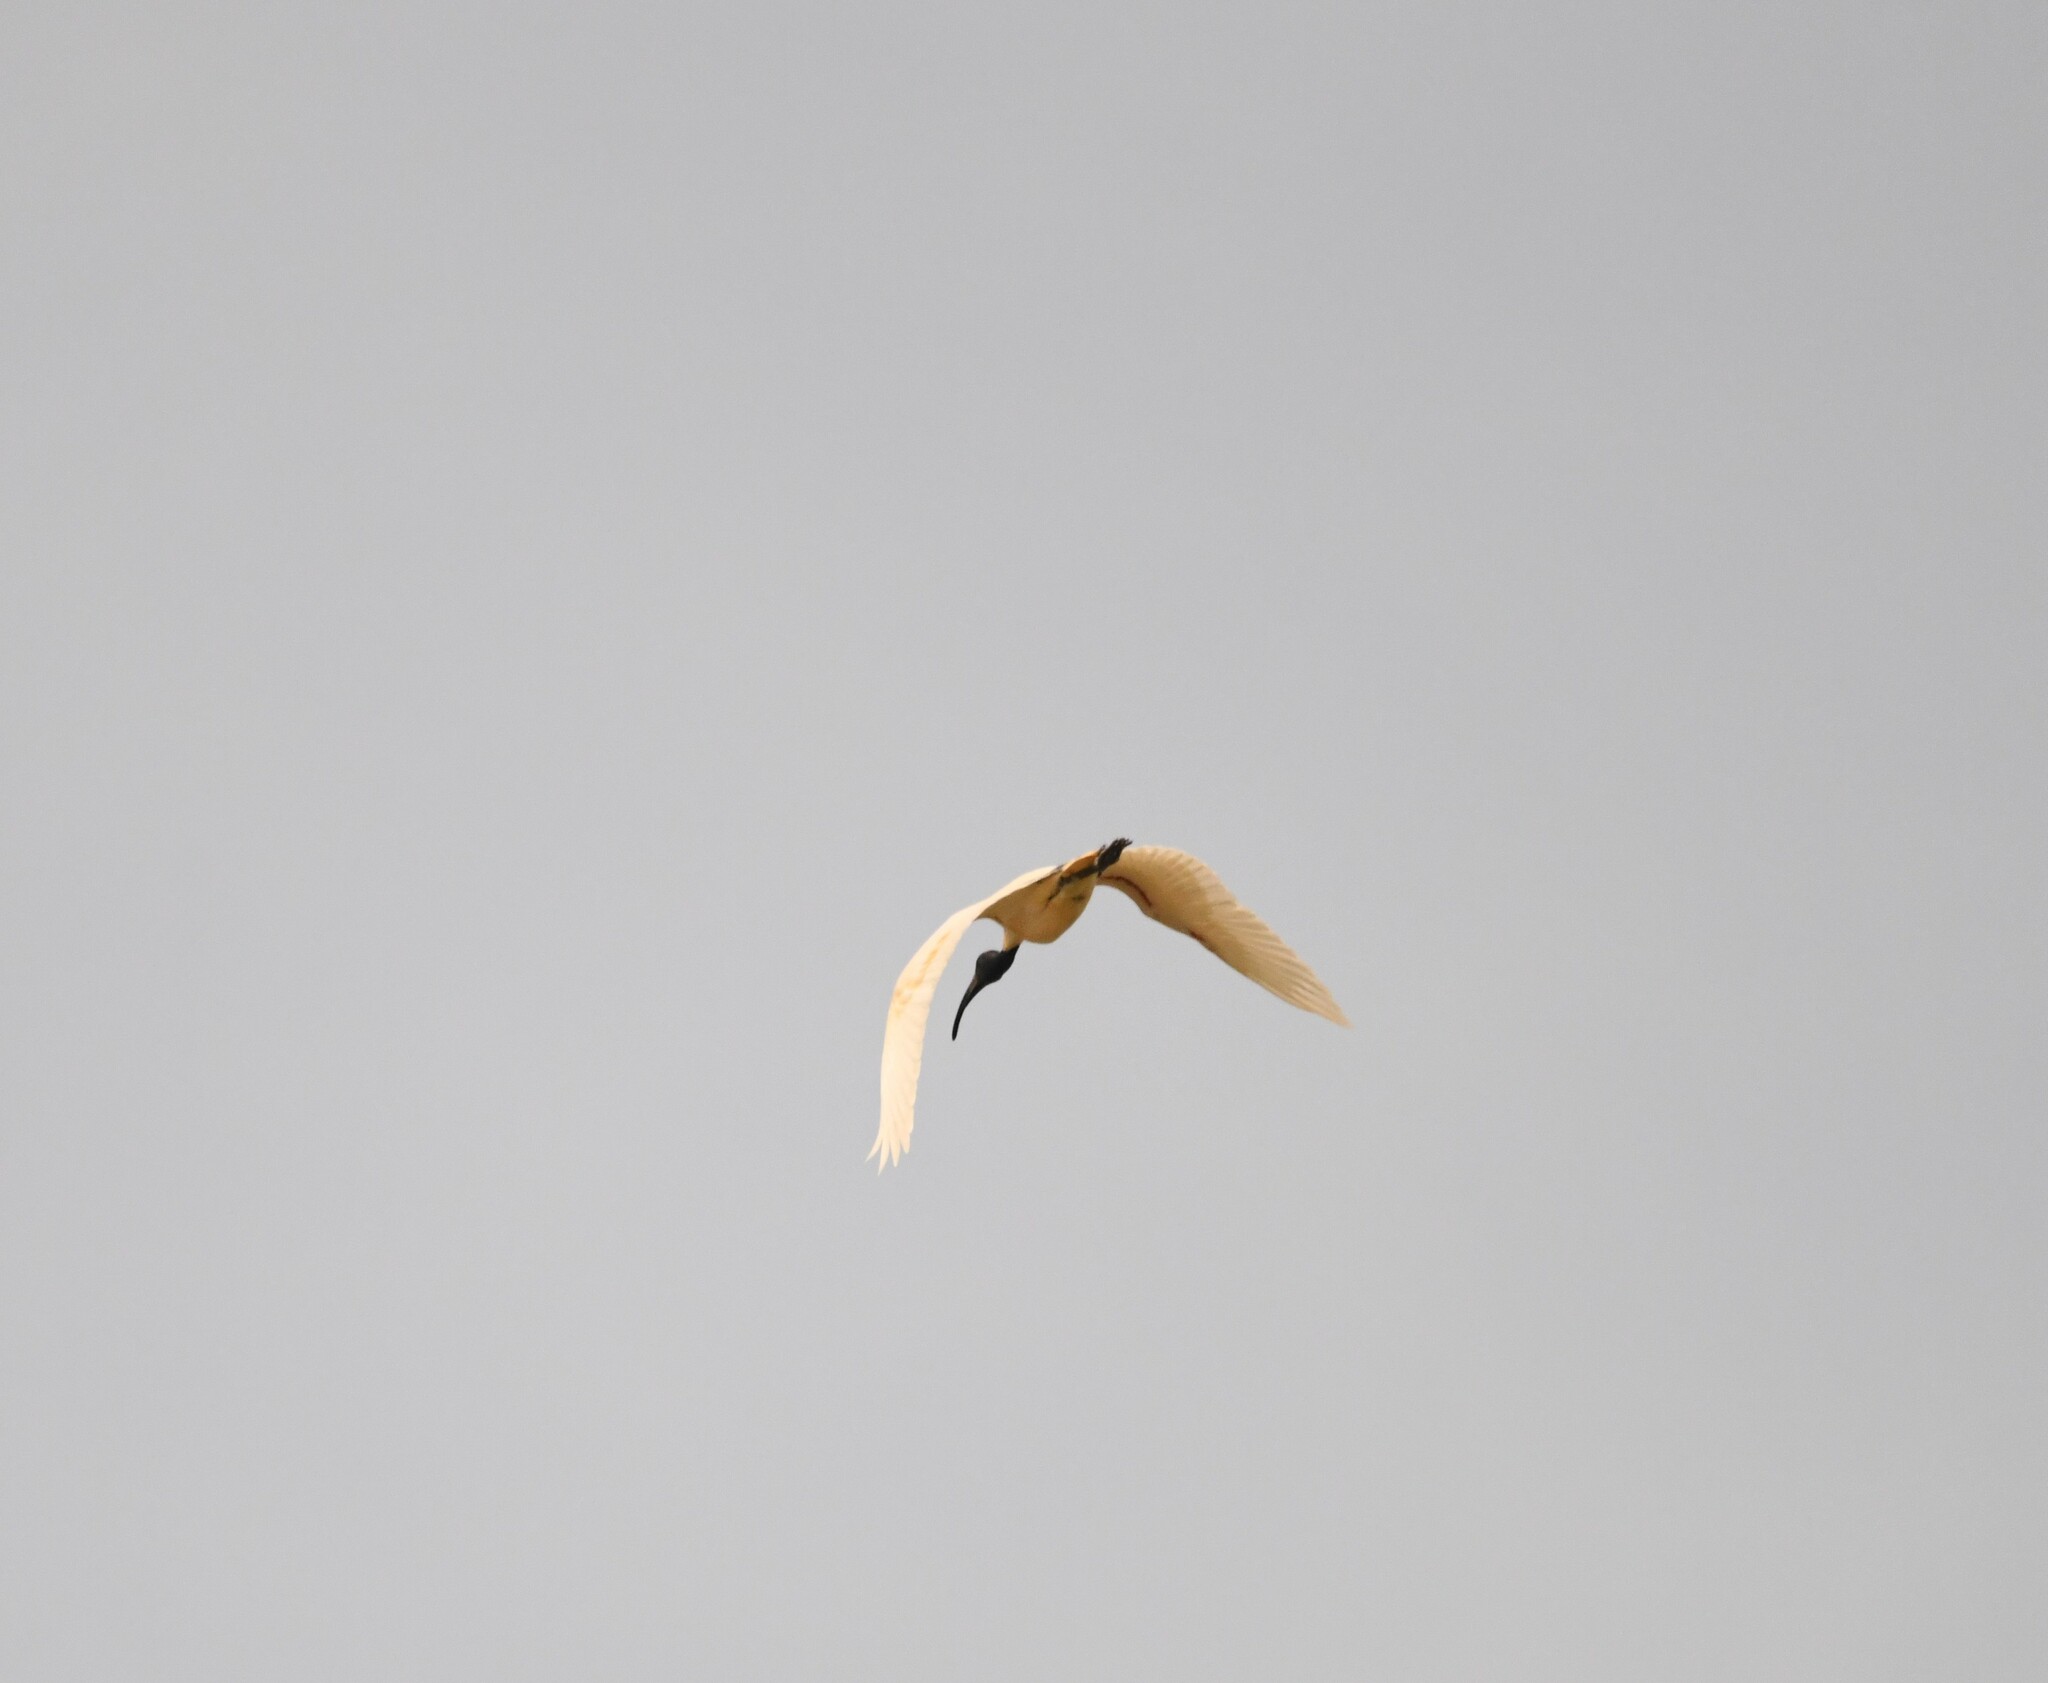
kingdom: Animalia
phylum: Chordata
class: Aves
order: Pelecaniformes
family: Threskiornithidae
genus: Threskiornis
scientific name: Threskiornis melanocephalus
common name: Black-headed ibis
